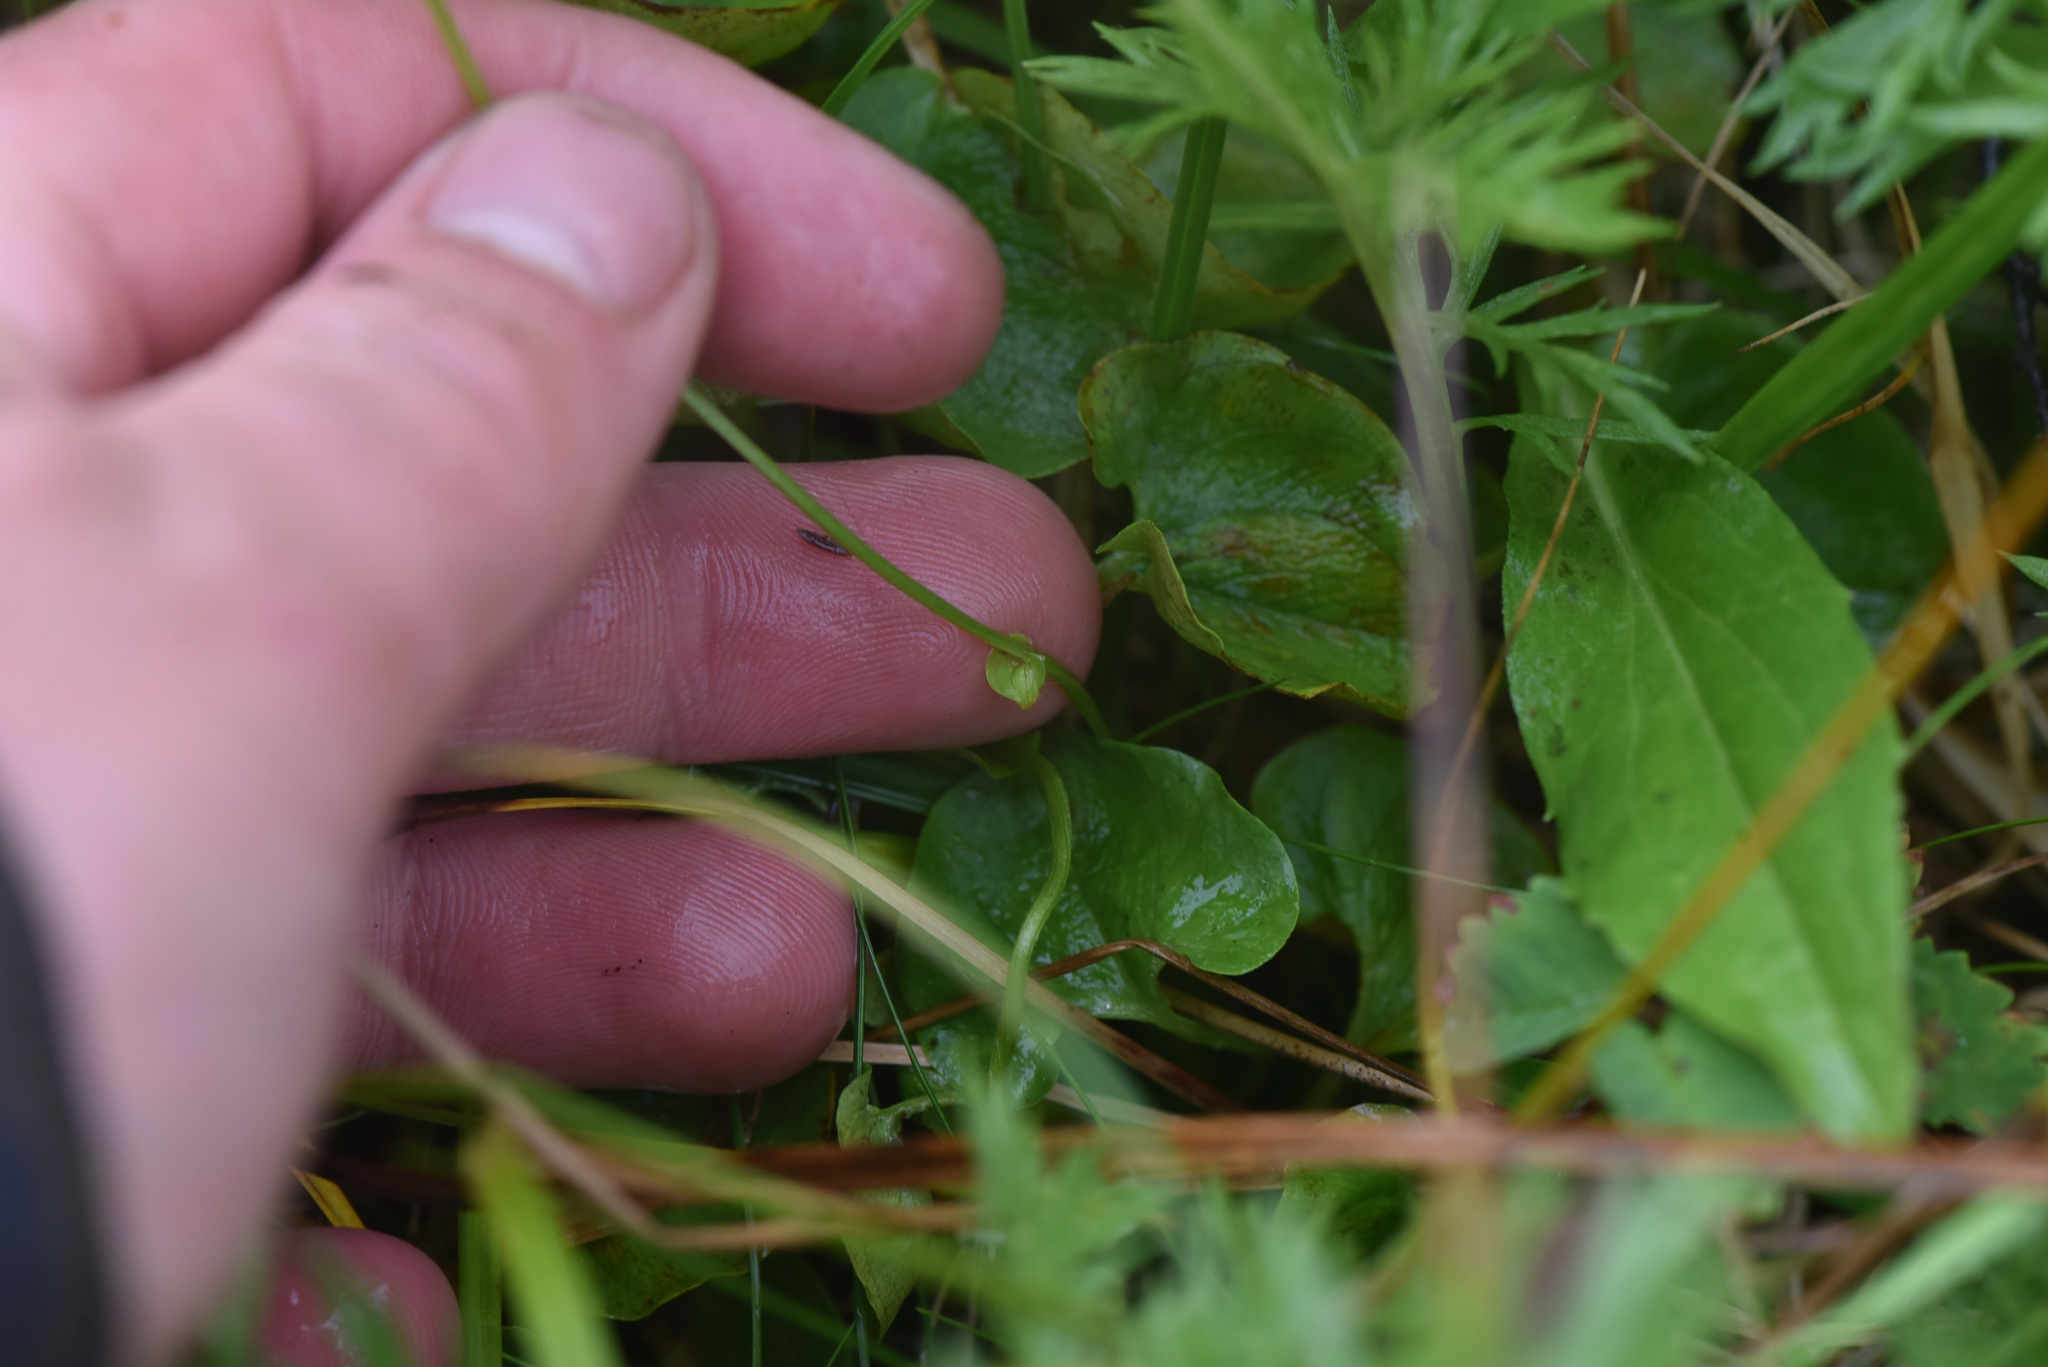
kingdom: Plantae
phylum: Tracheophyta
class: Magnoliopsida
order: Celastrales
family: Parnassiaceae
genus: Parnassia
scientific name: Parnassia fimbriata
